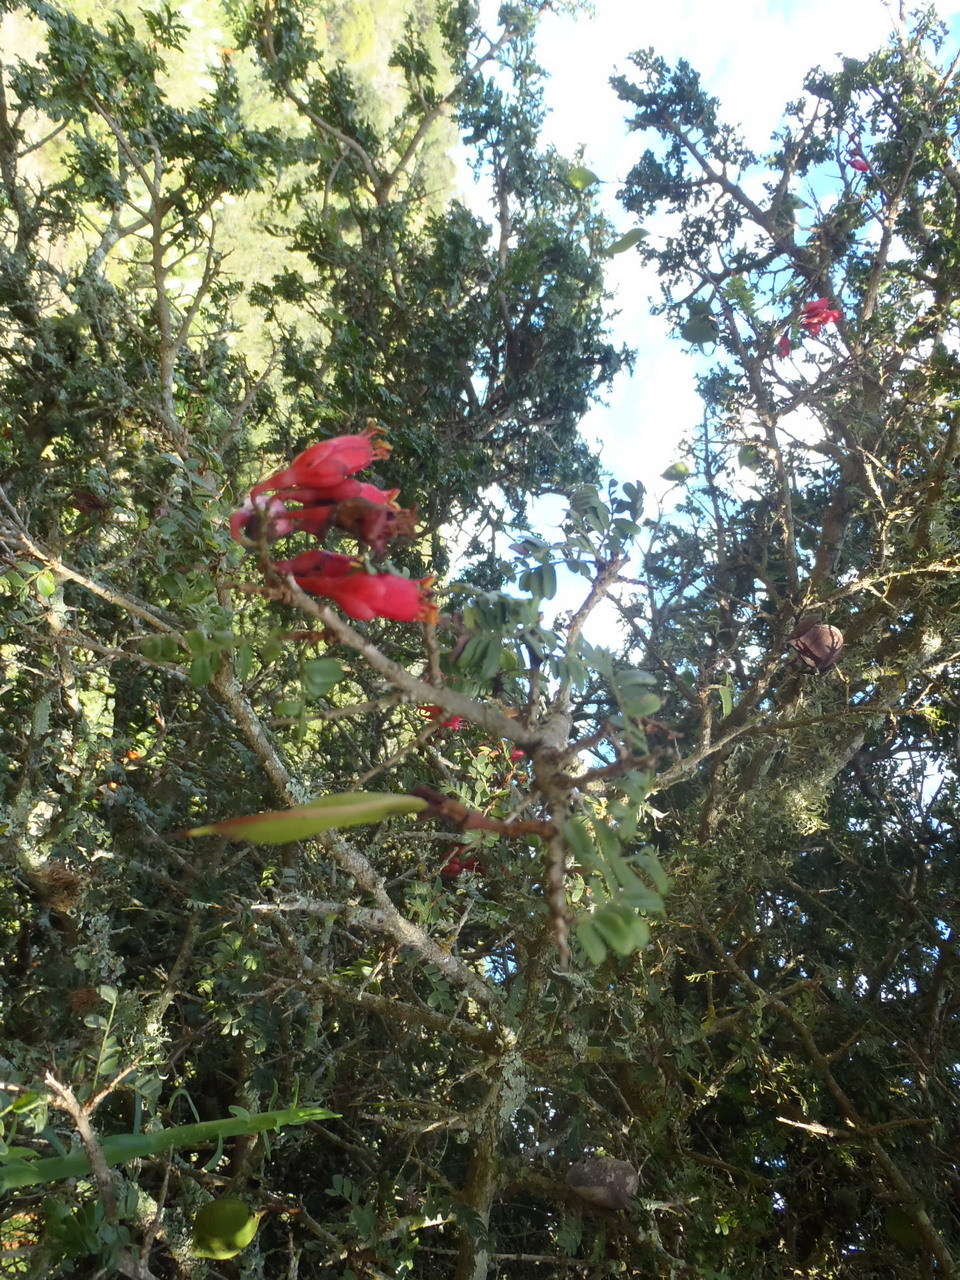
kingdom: Plantae
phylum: Tracheophyta
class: Magnoliopsida
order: Fabales
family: Fabaceae
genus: Schotia
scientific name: Schotia afra
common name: Hottentot's bean
